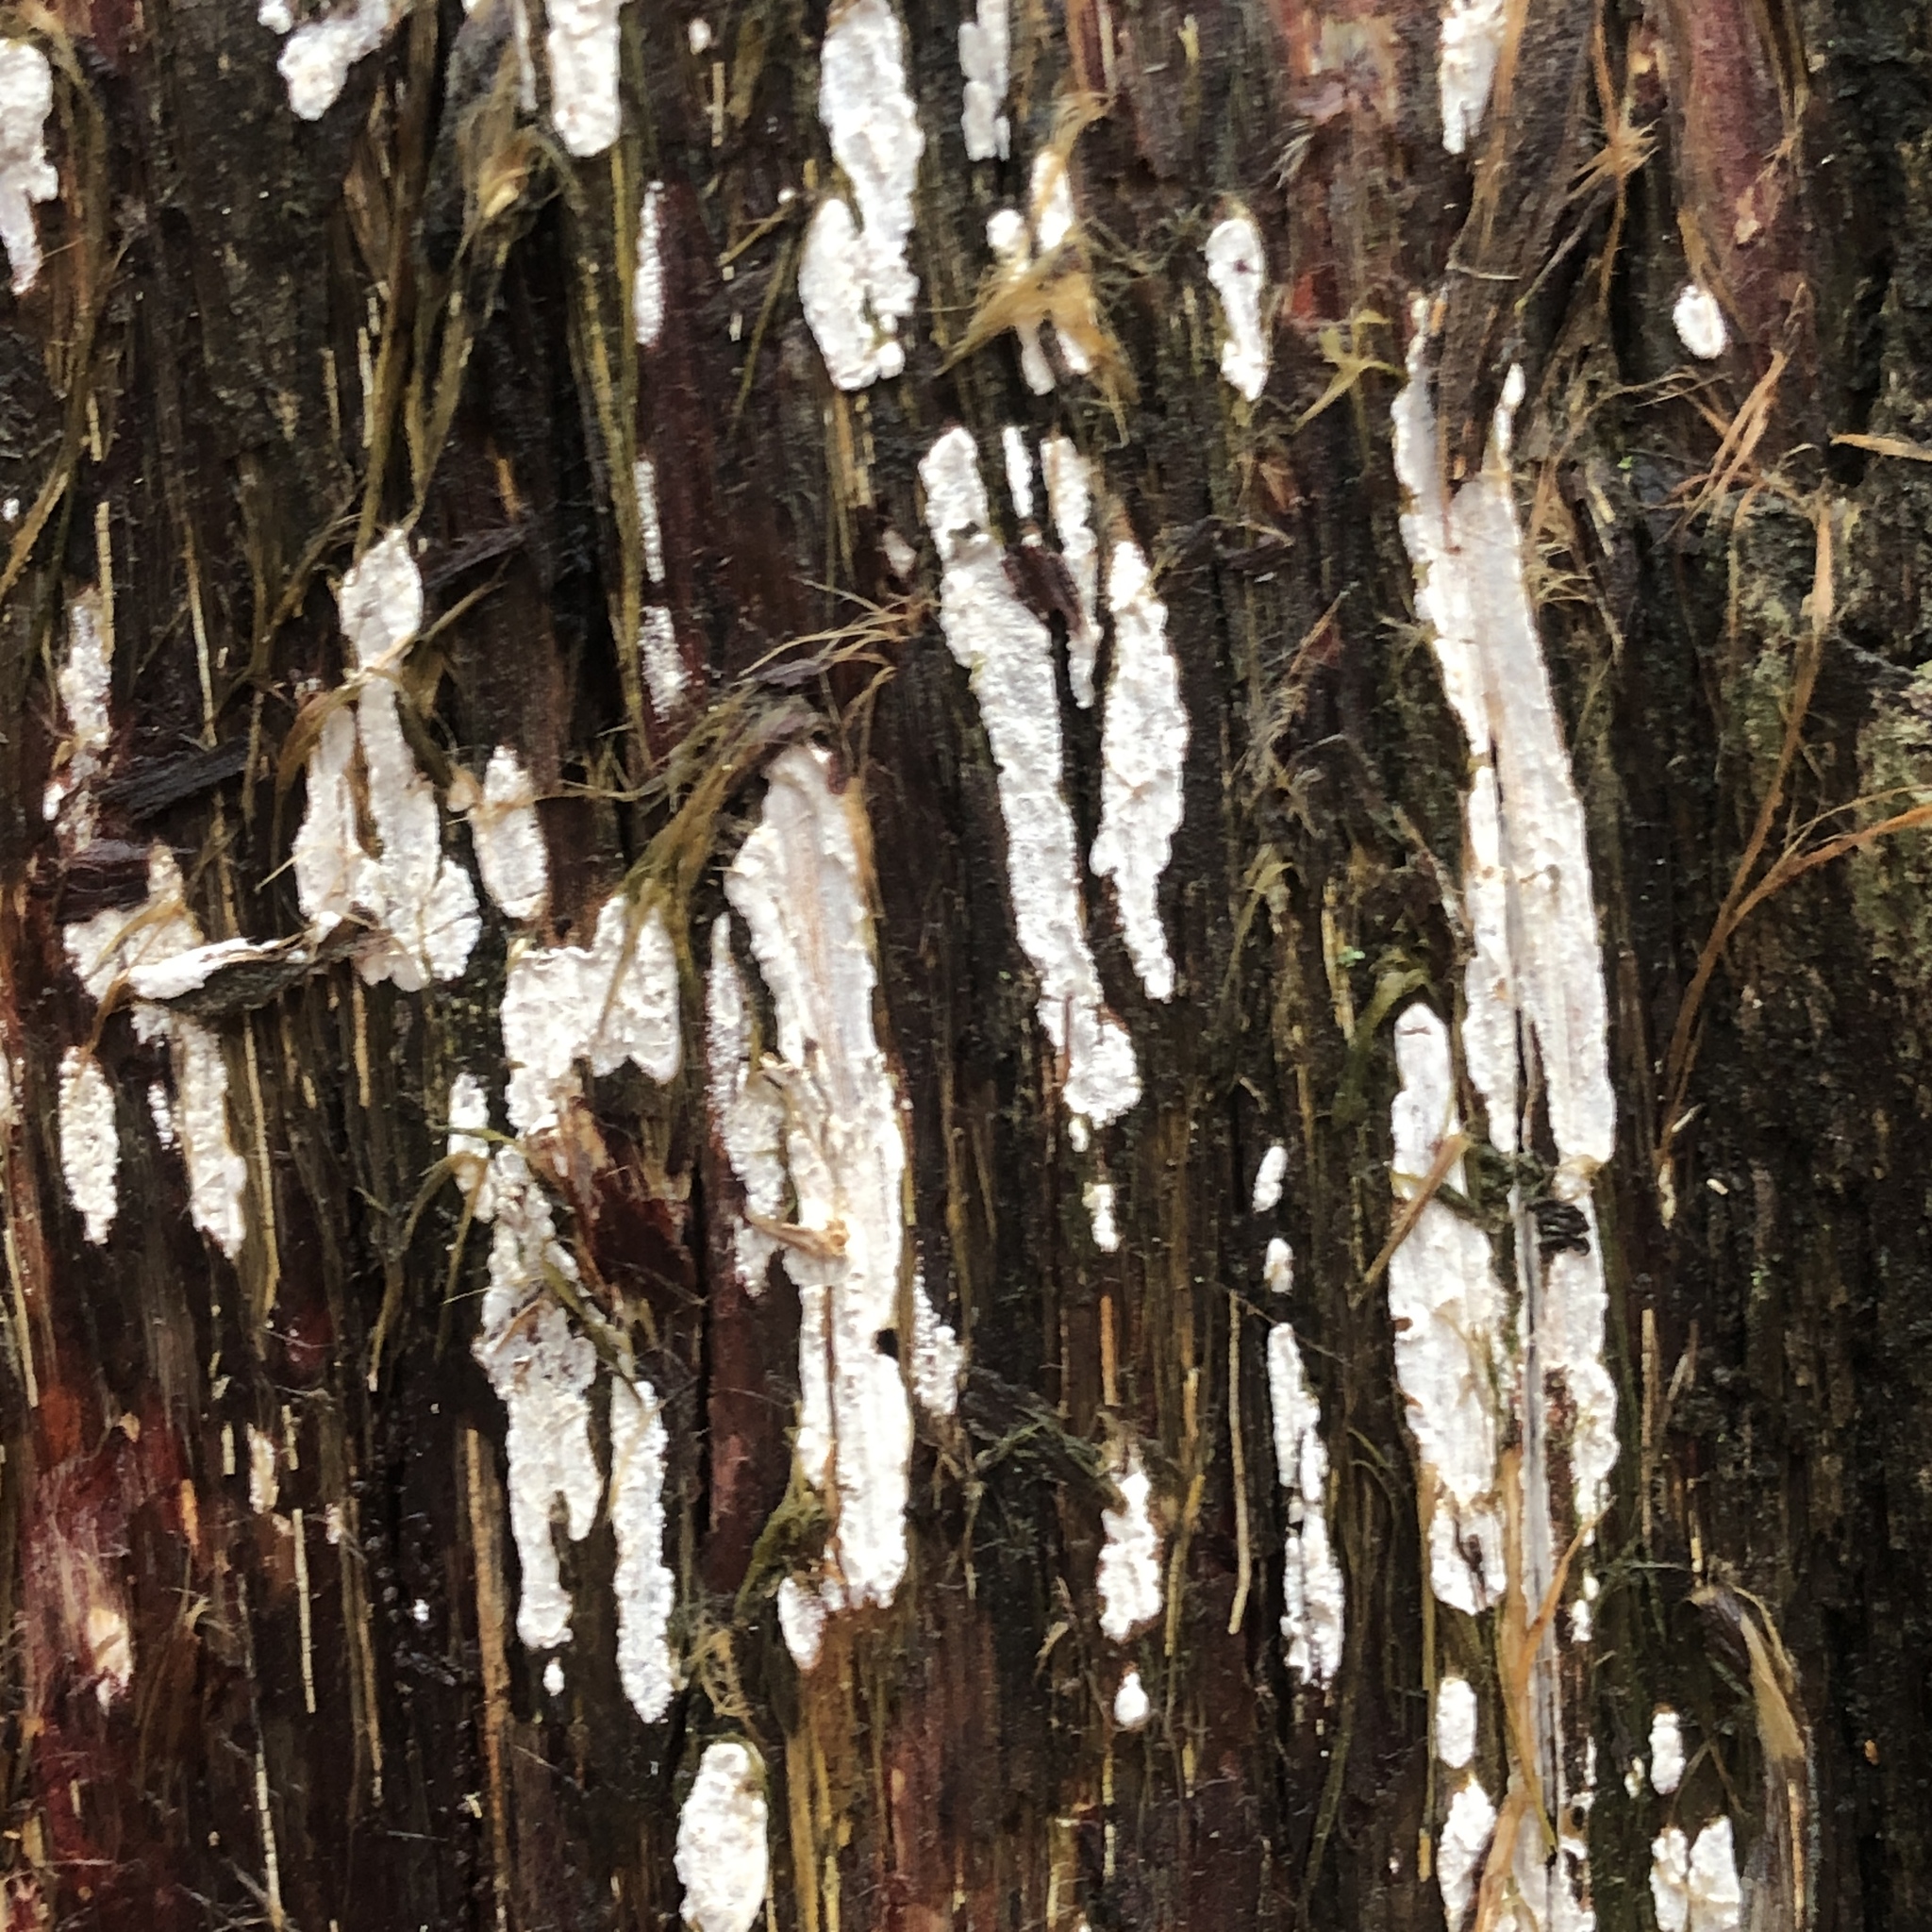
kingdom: Fungi
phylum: Basidiomycota
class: Agaricomycetes
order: Agaricales
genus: Dendrothele
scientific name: Dendrothele nivosa
